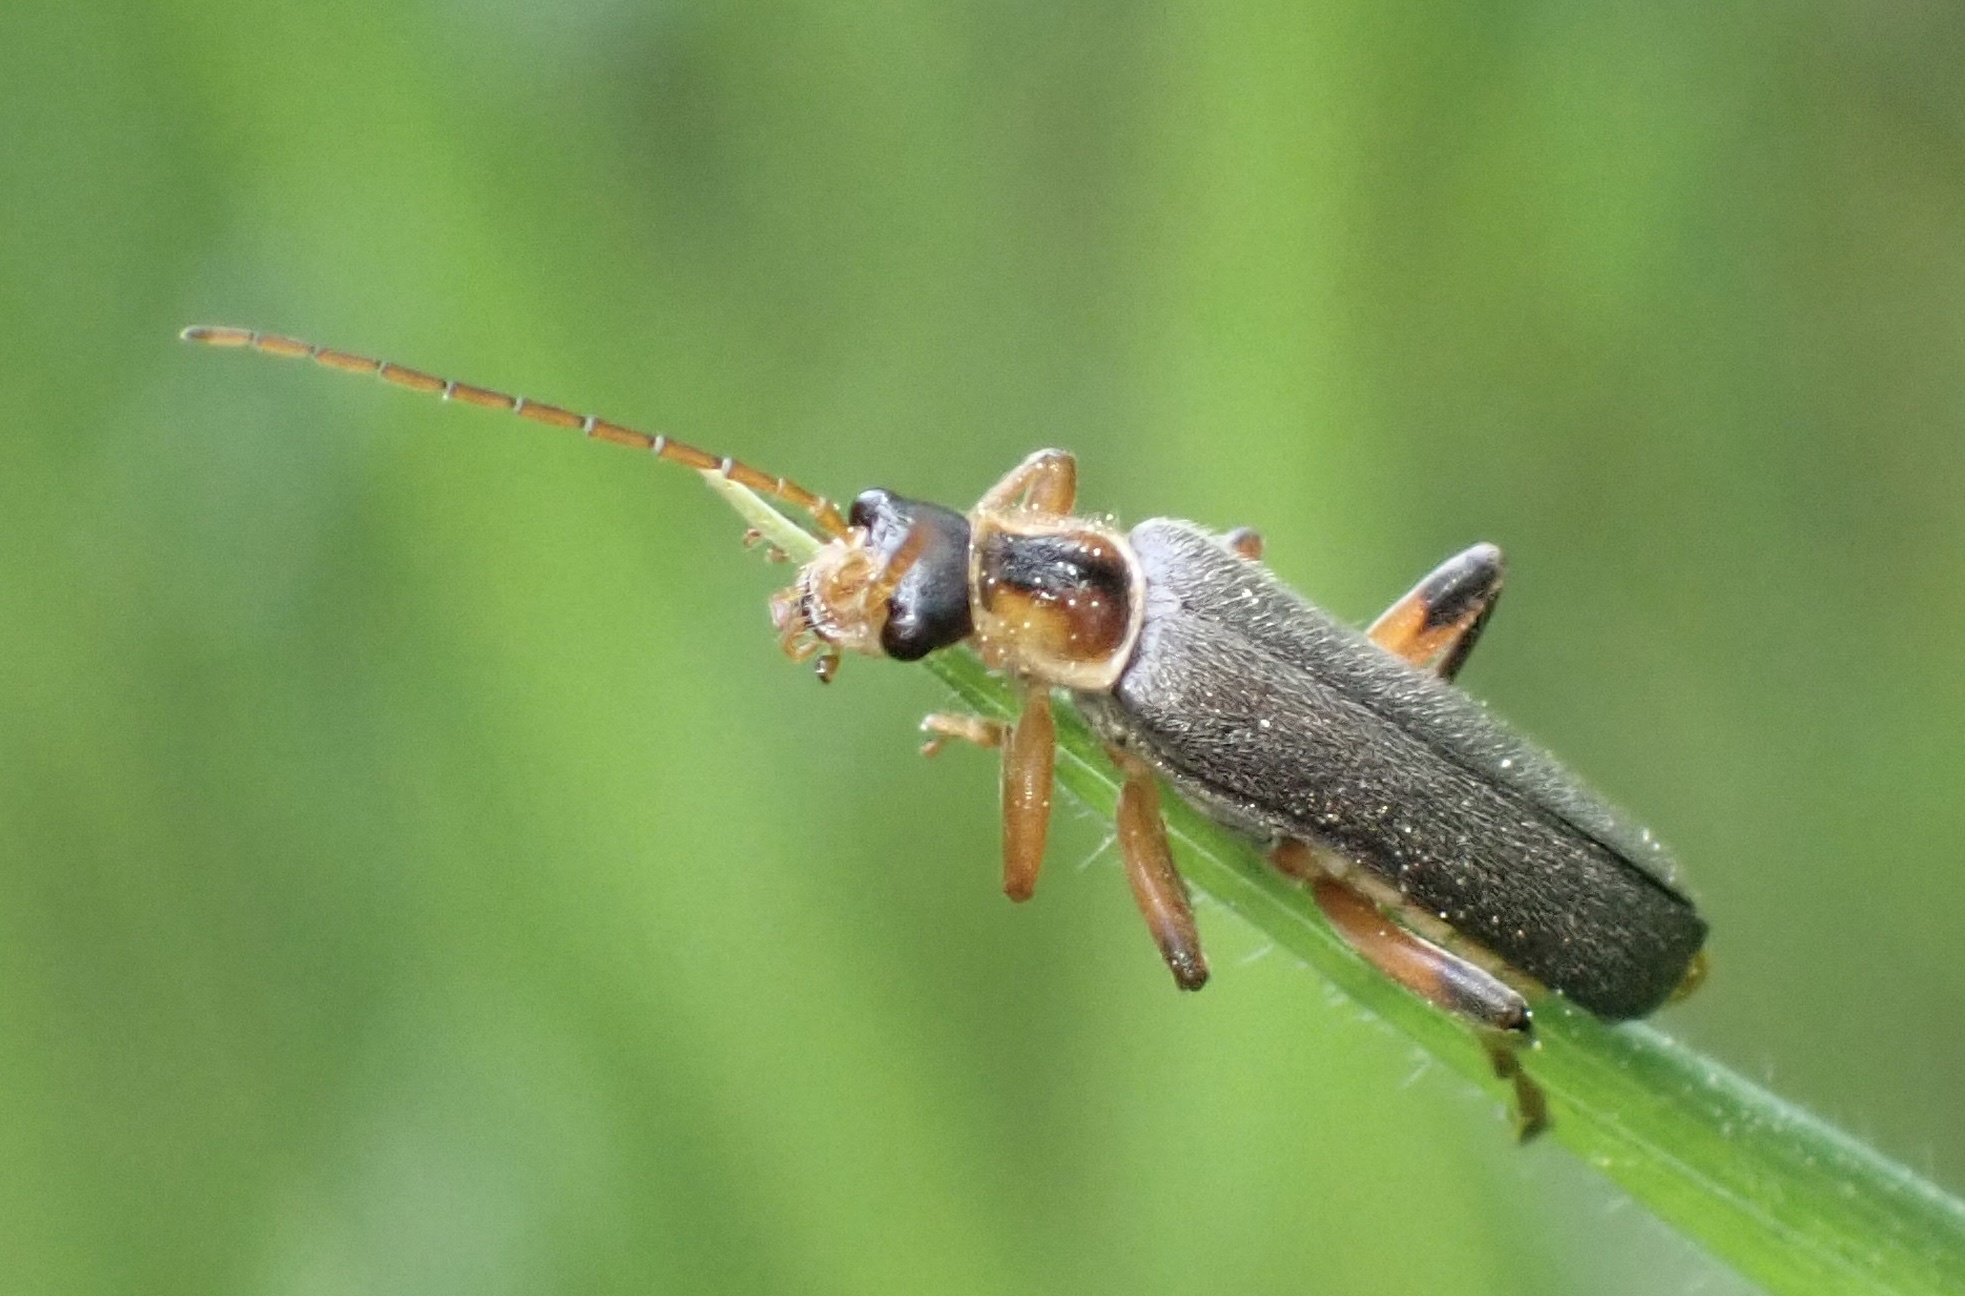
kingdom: Animalia
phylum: Arthropoda
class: Insecta
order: Coleoptera
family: Cantharidae
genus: Cantharis
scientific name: Cantharis nigricans
